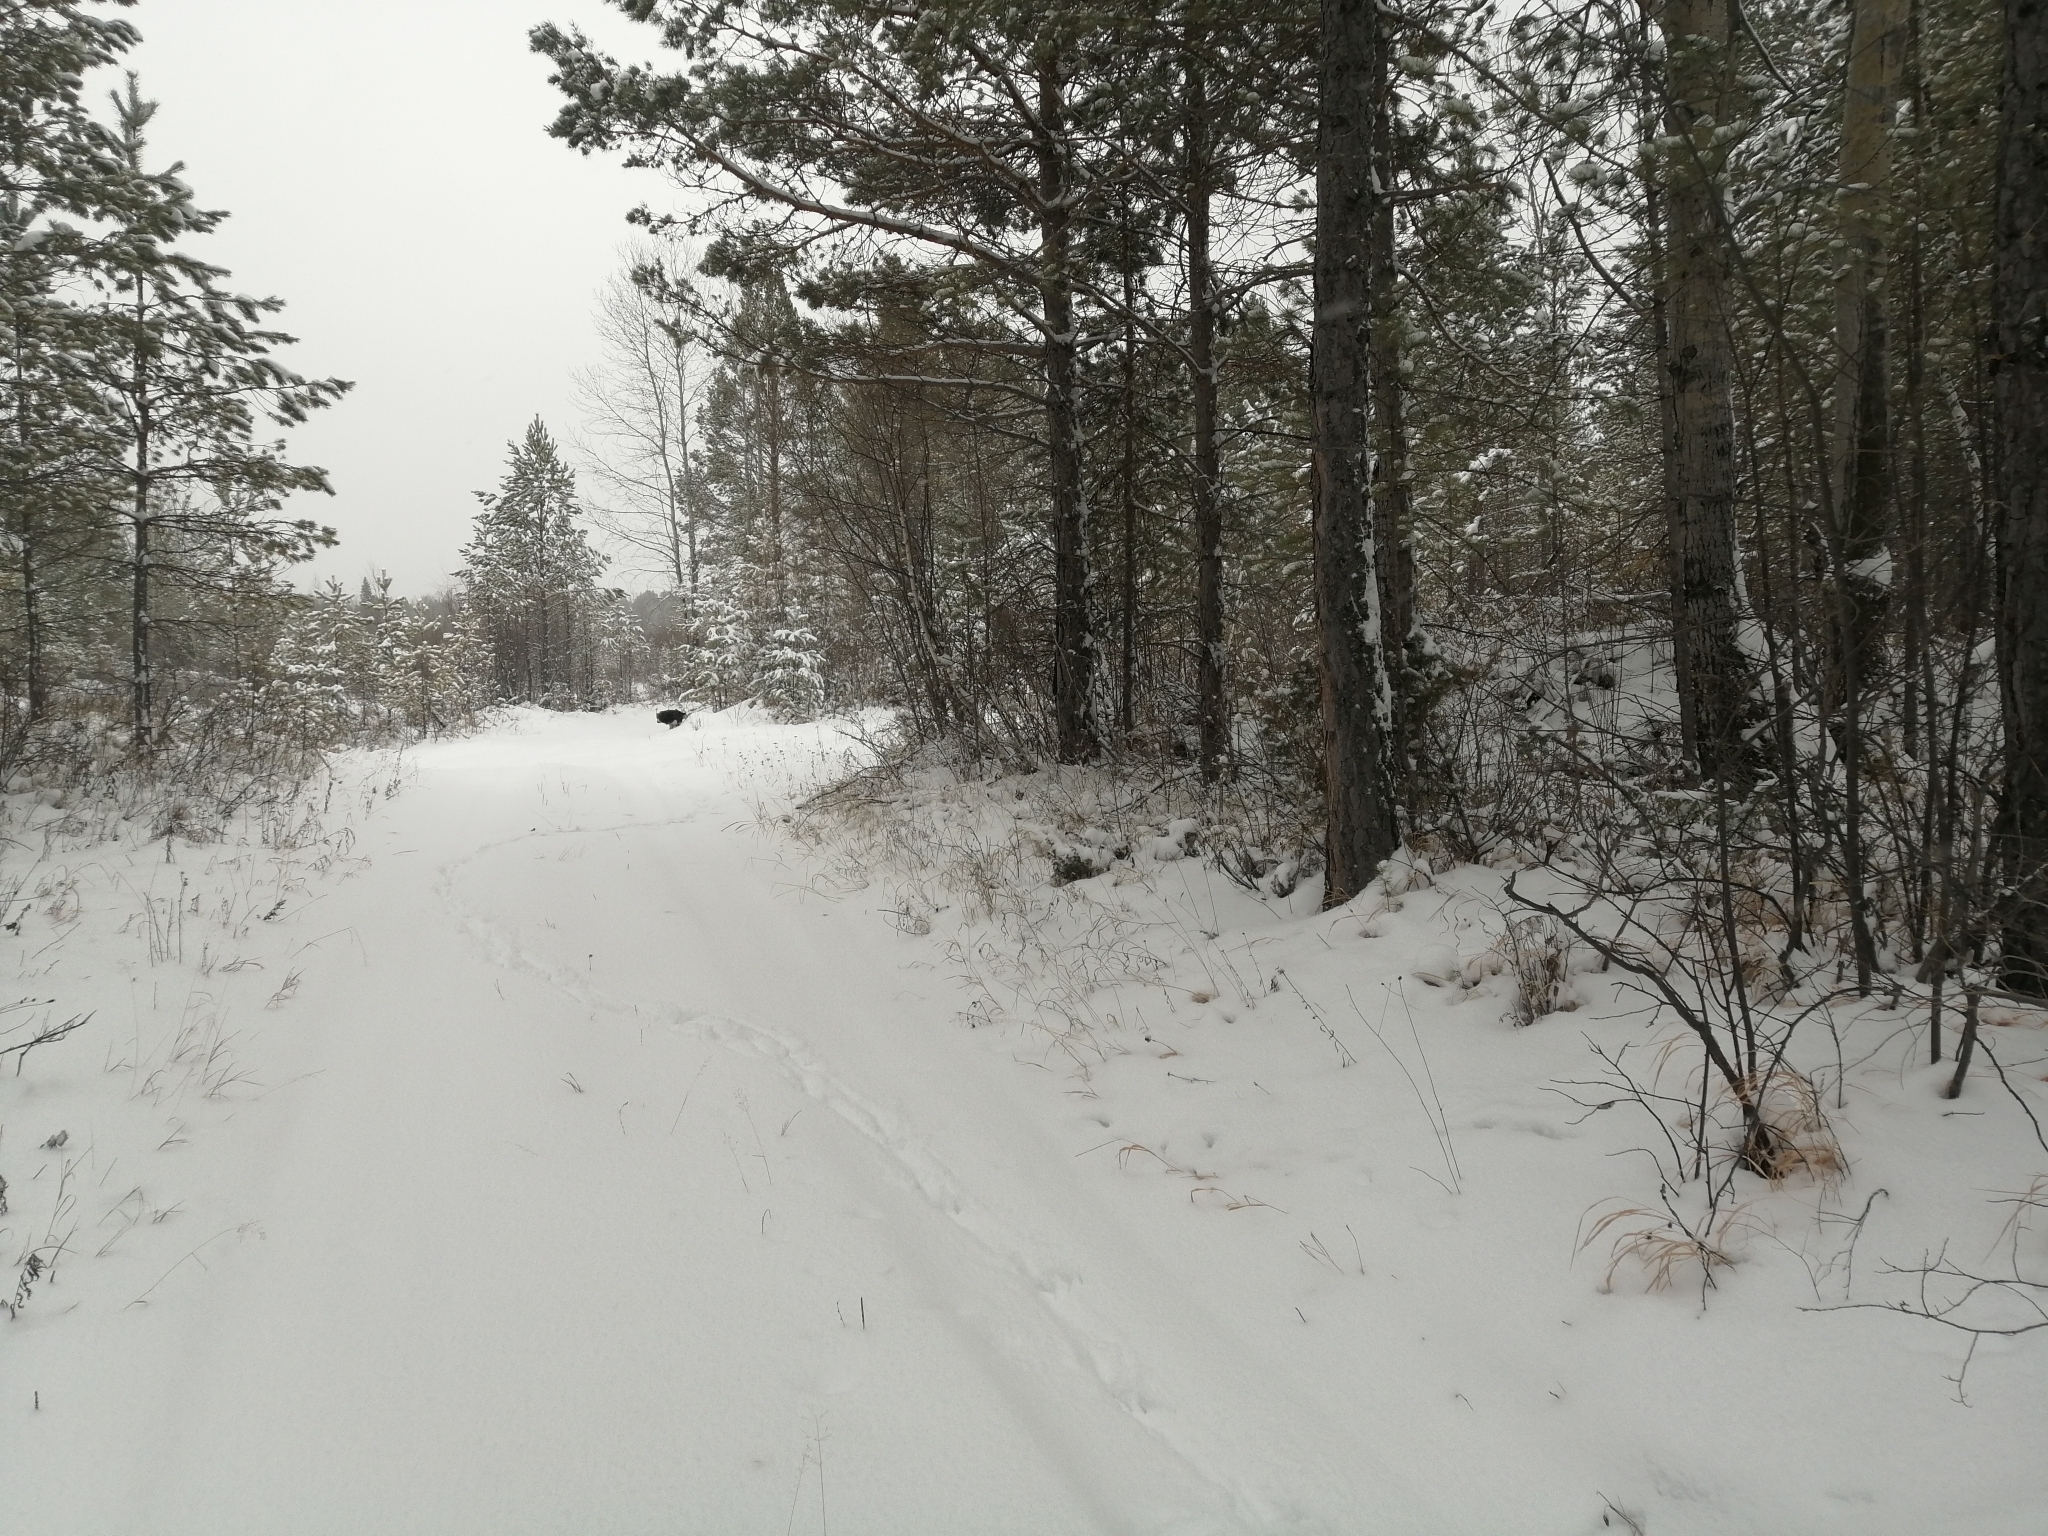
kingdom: Plantae
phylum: Tracheophyta
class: Pinopsida
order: Pinales
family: Pinaceae
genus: Pinus
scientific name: Pinus sylvestris
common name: Scots pine
